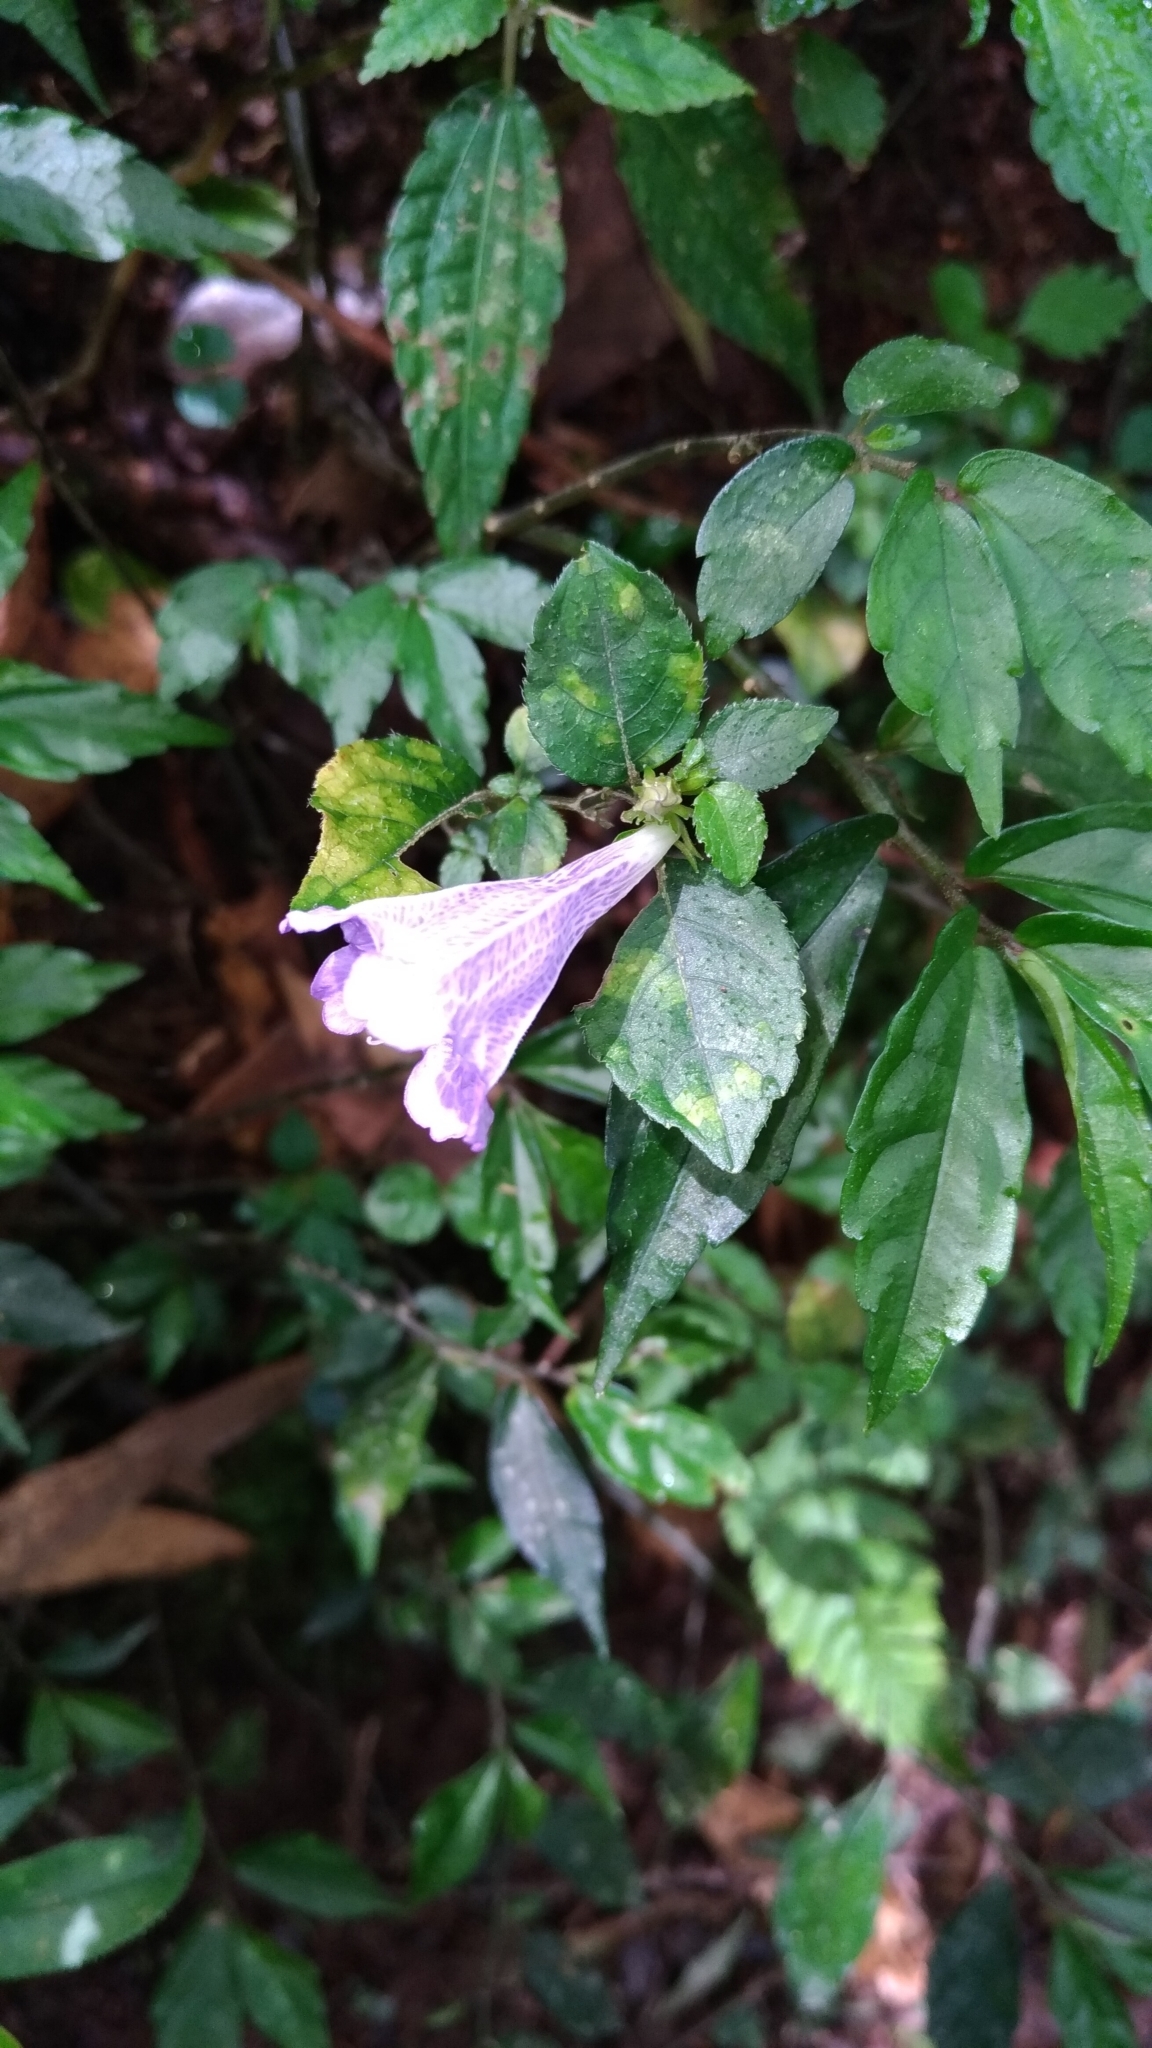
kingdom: Plantae
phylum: Tracheophyta
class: Magnoliopsida
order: Lamiales
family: Acanthaceae
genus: Strobilanthes
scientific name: Strobilanthes rankanensis
